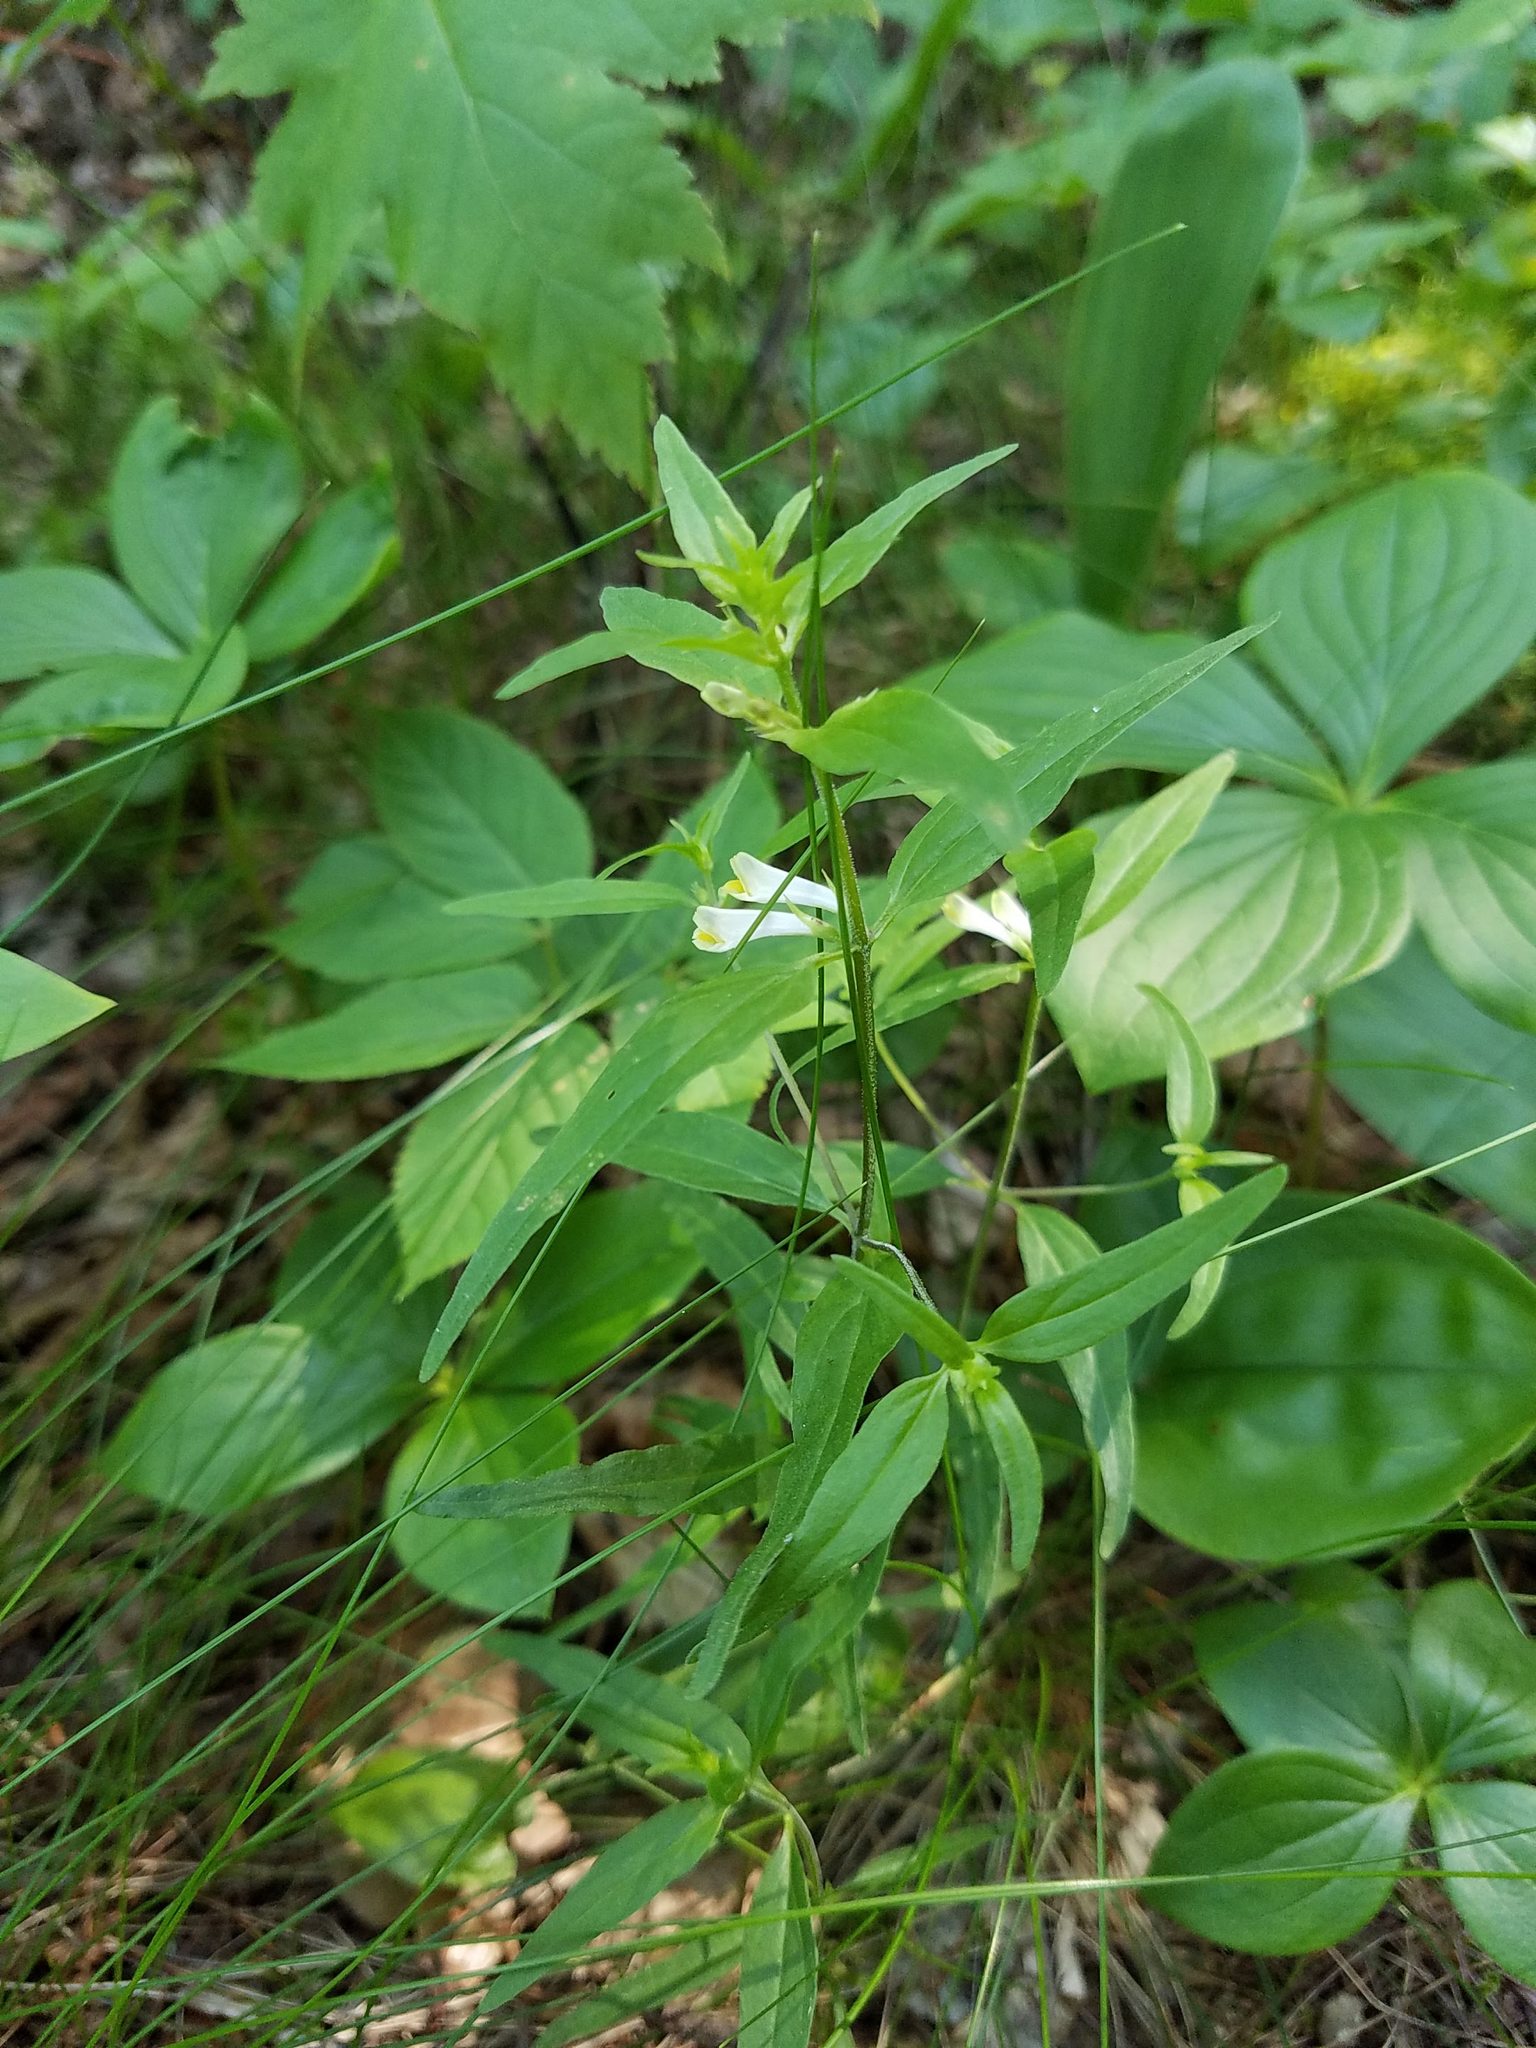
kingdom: Plantae
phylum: Tracheophyta
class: Magnoliopsida
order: Lamiales
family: Orobanchaceae
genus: Melampyrum
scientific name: Melampyrum lineare
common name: American cow-wheat
